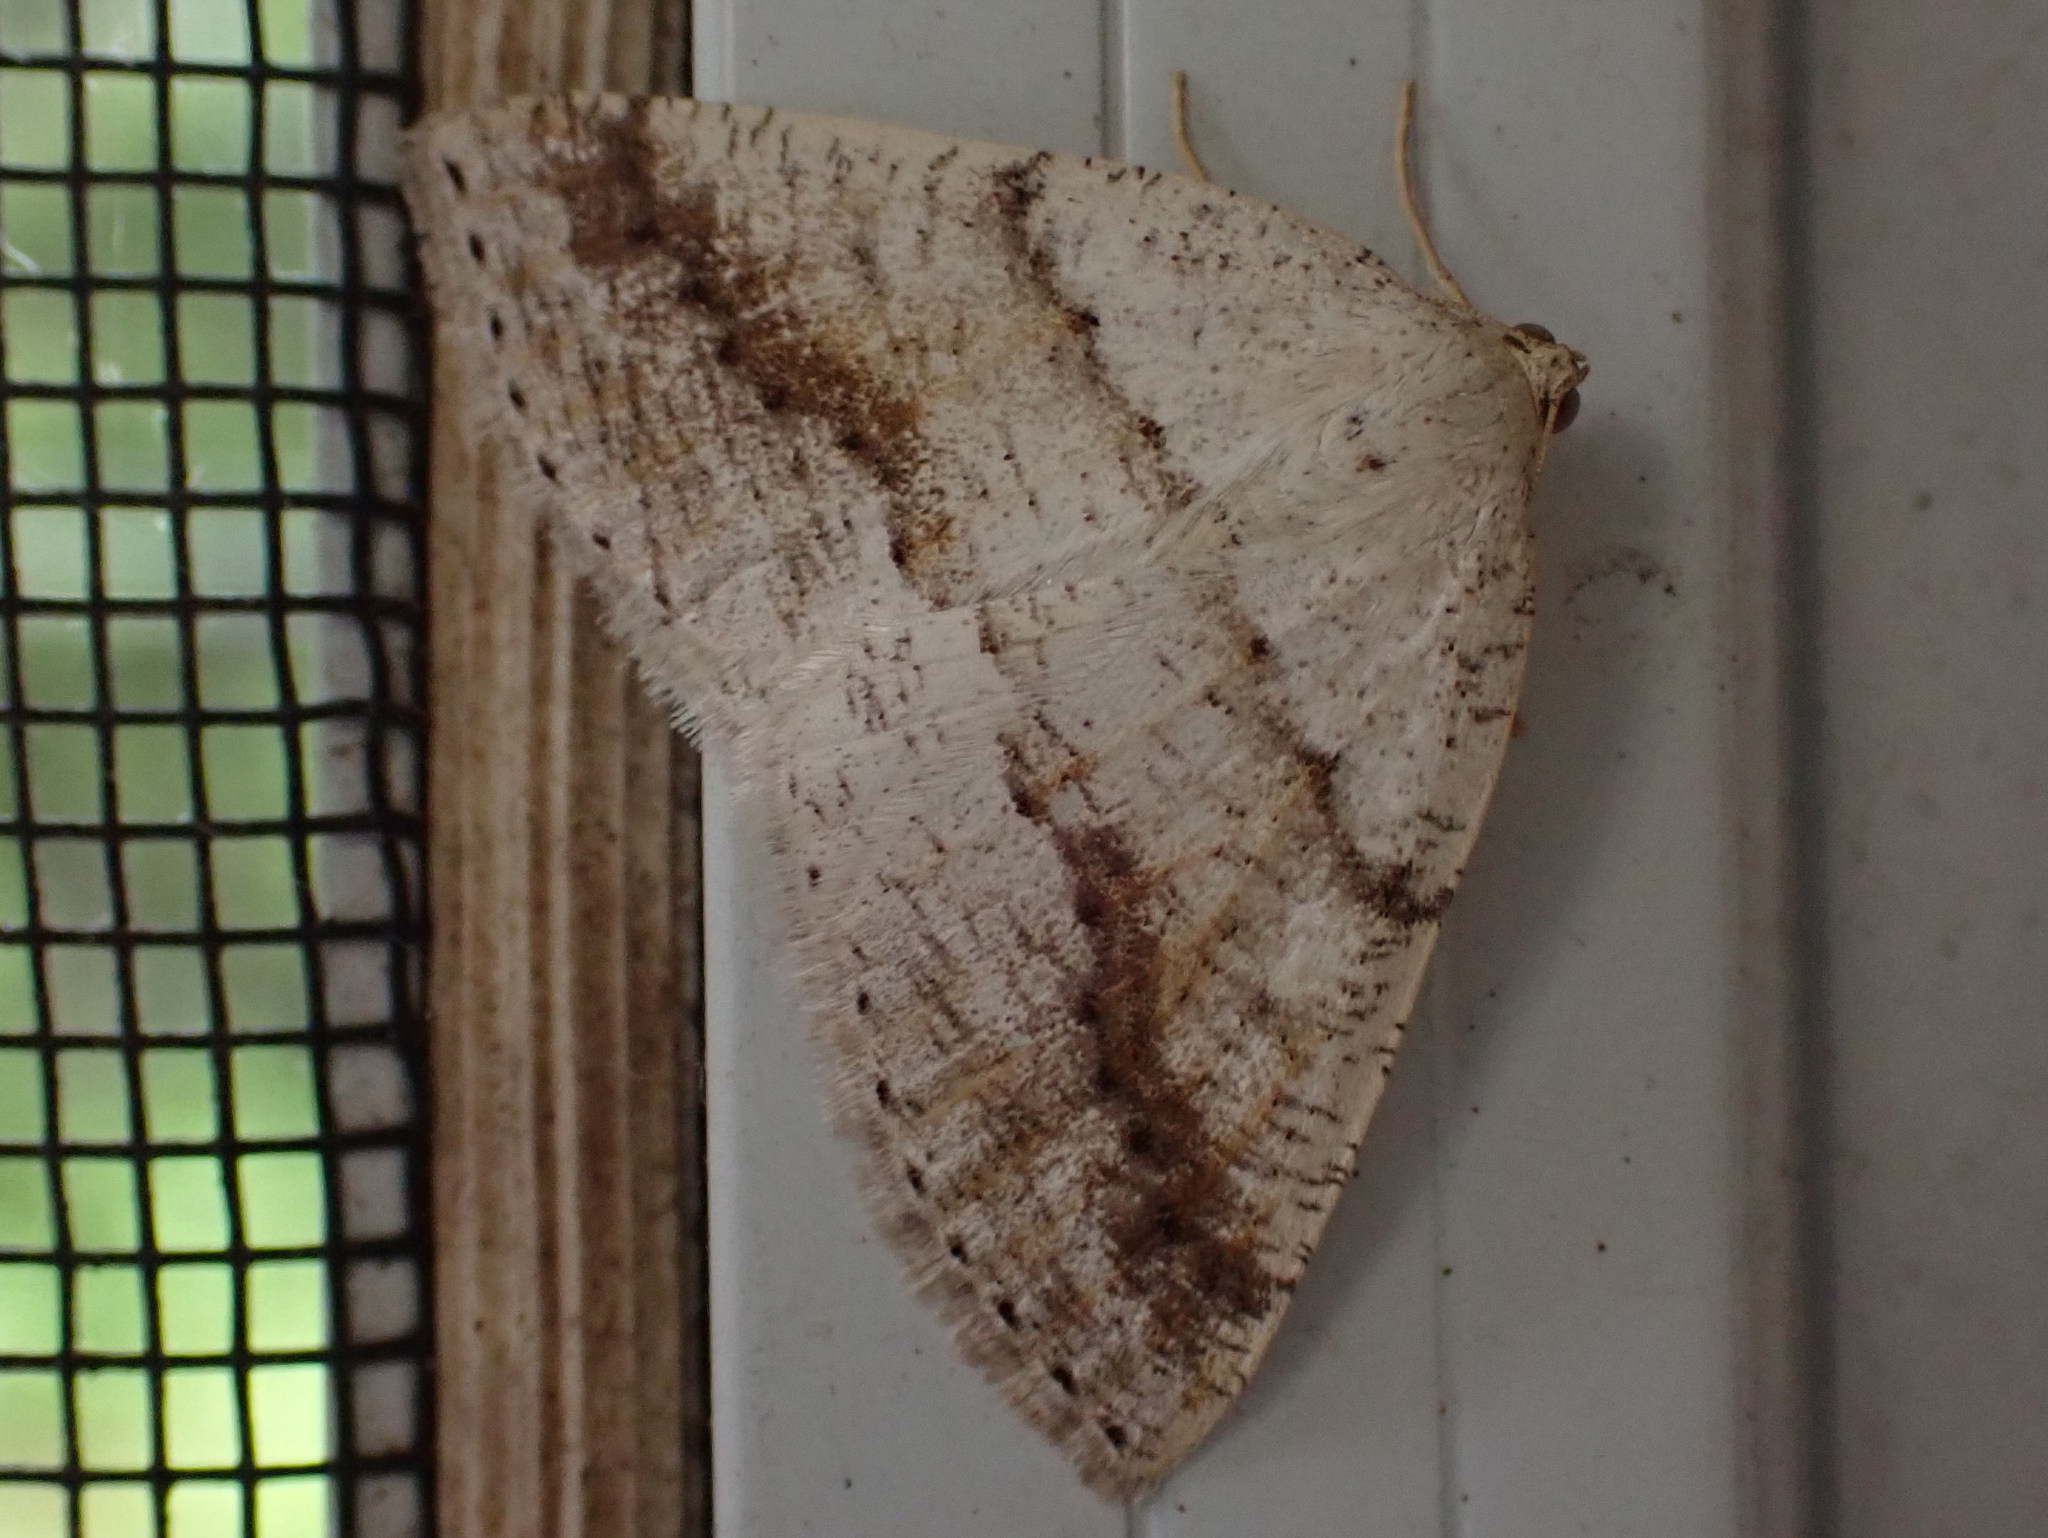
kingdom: Animalia
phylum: Arthropoda
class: Insecta
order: Lepidoptera
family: Geometridae
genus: Tacparia
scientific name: Tacparia detersata
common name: Pale alder moth
